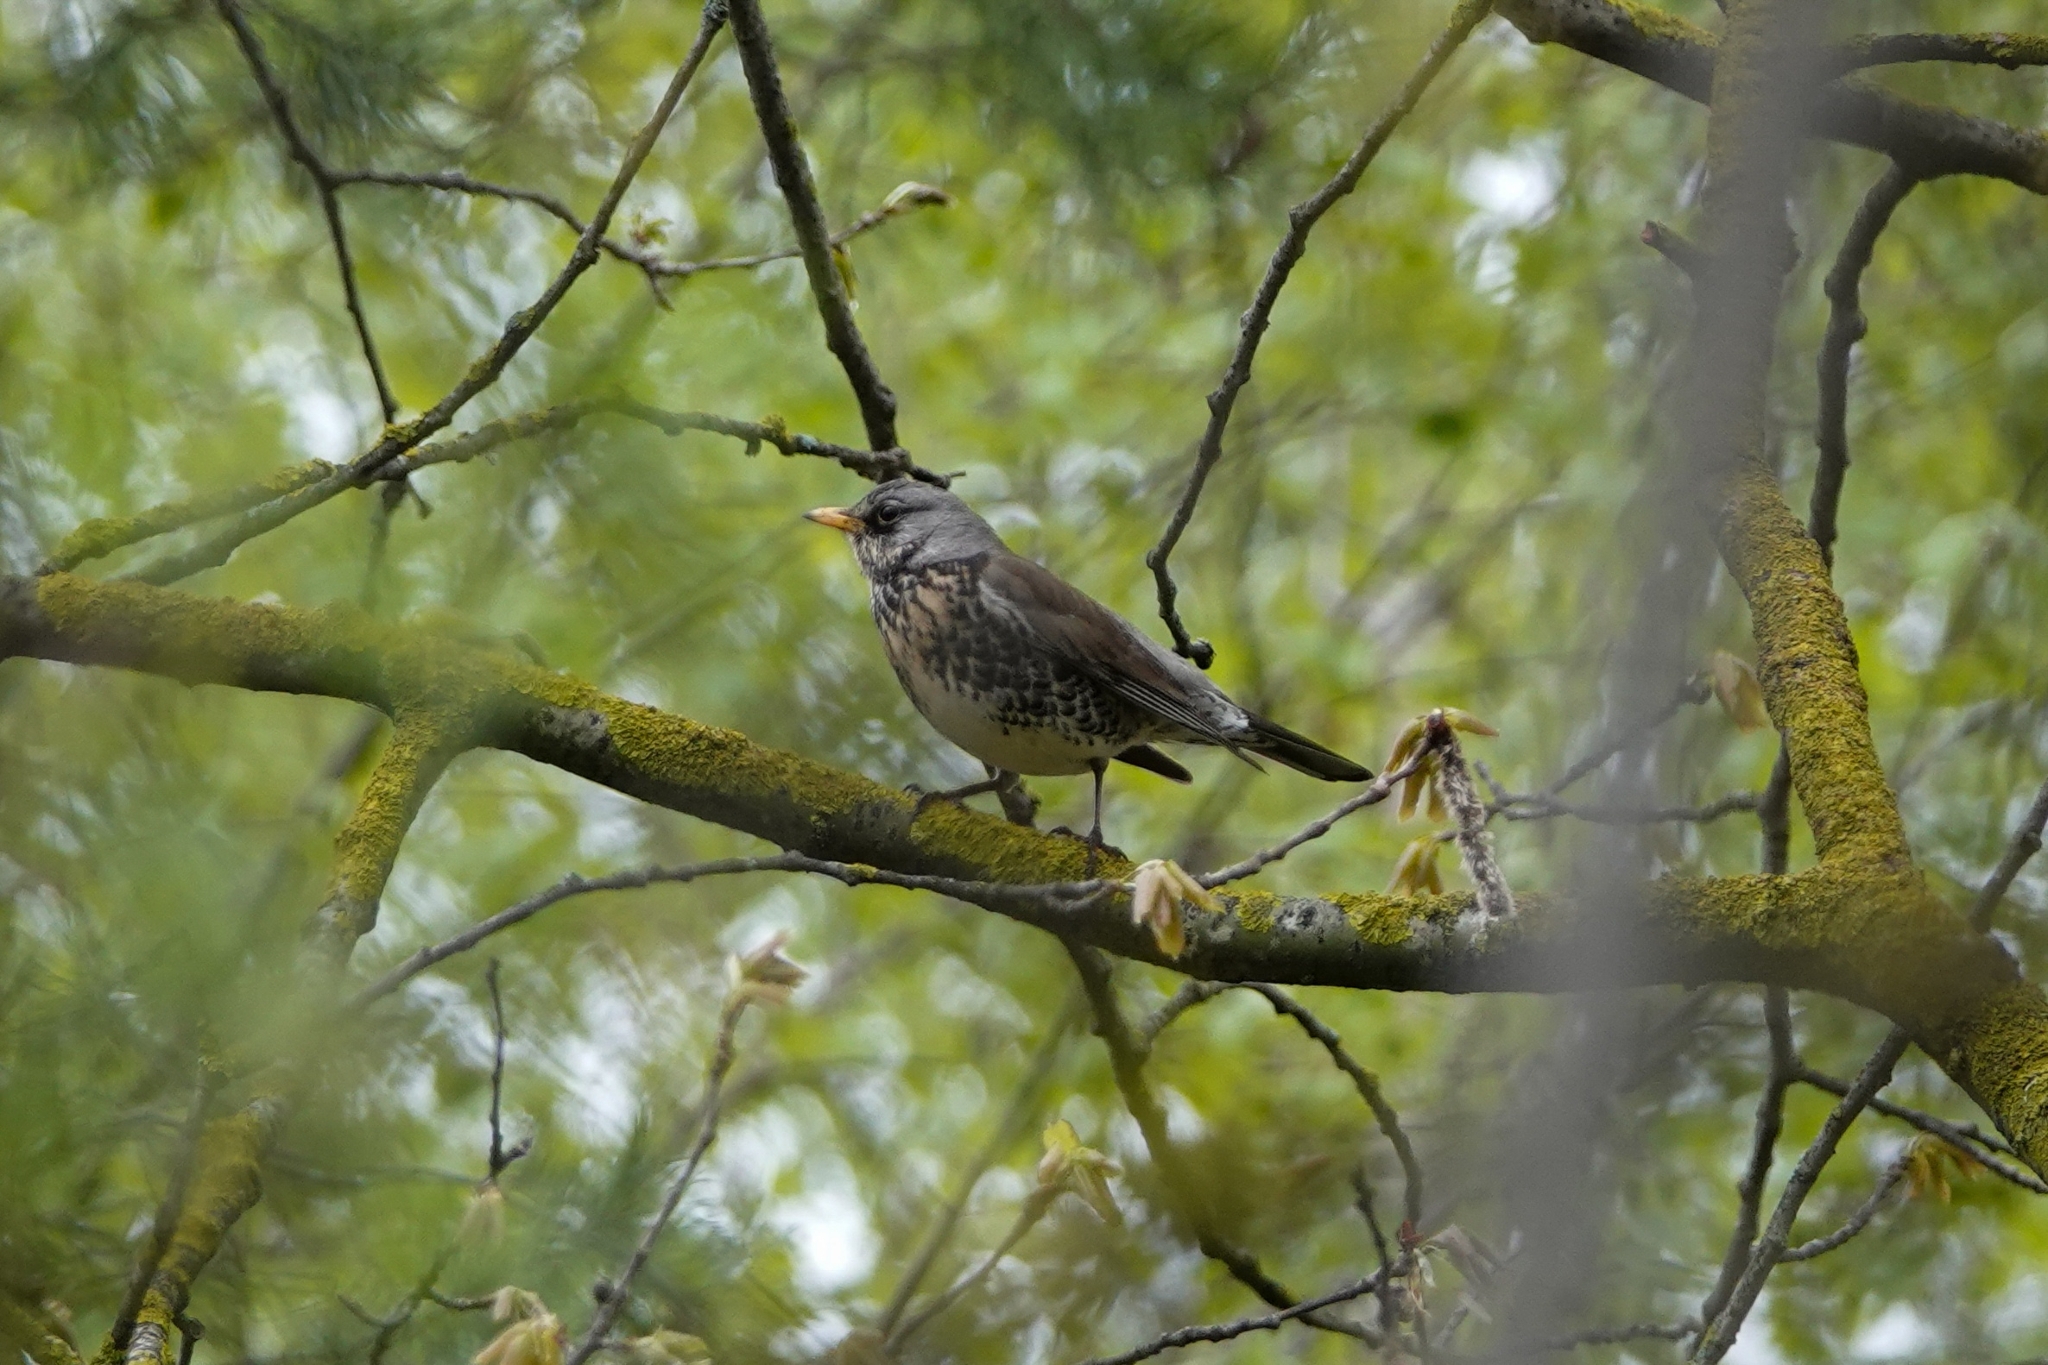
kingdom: Animalia
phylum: Chordata
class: Aves
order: Passeriformes
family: Turdidae
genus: Turdus
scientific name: Turdus pilaris
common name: Fieldfare
